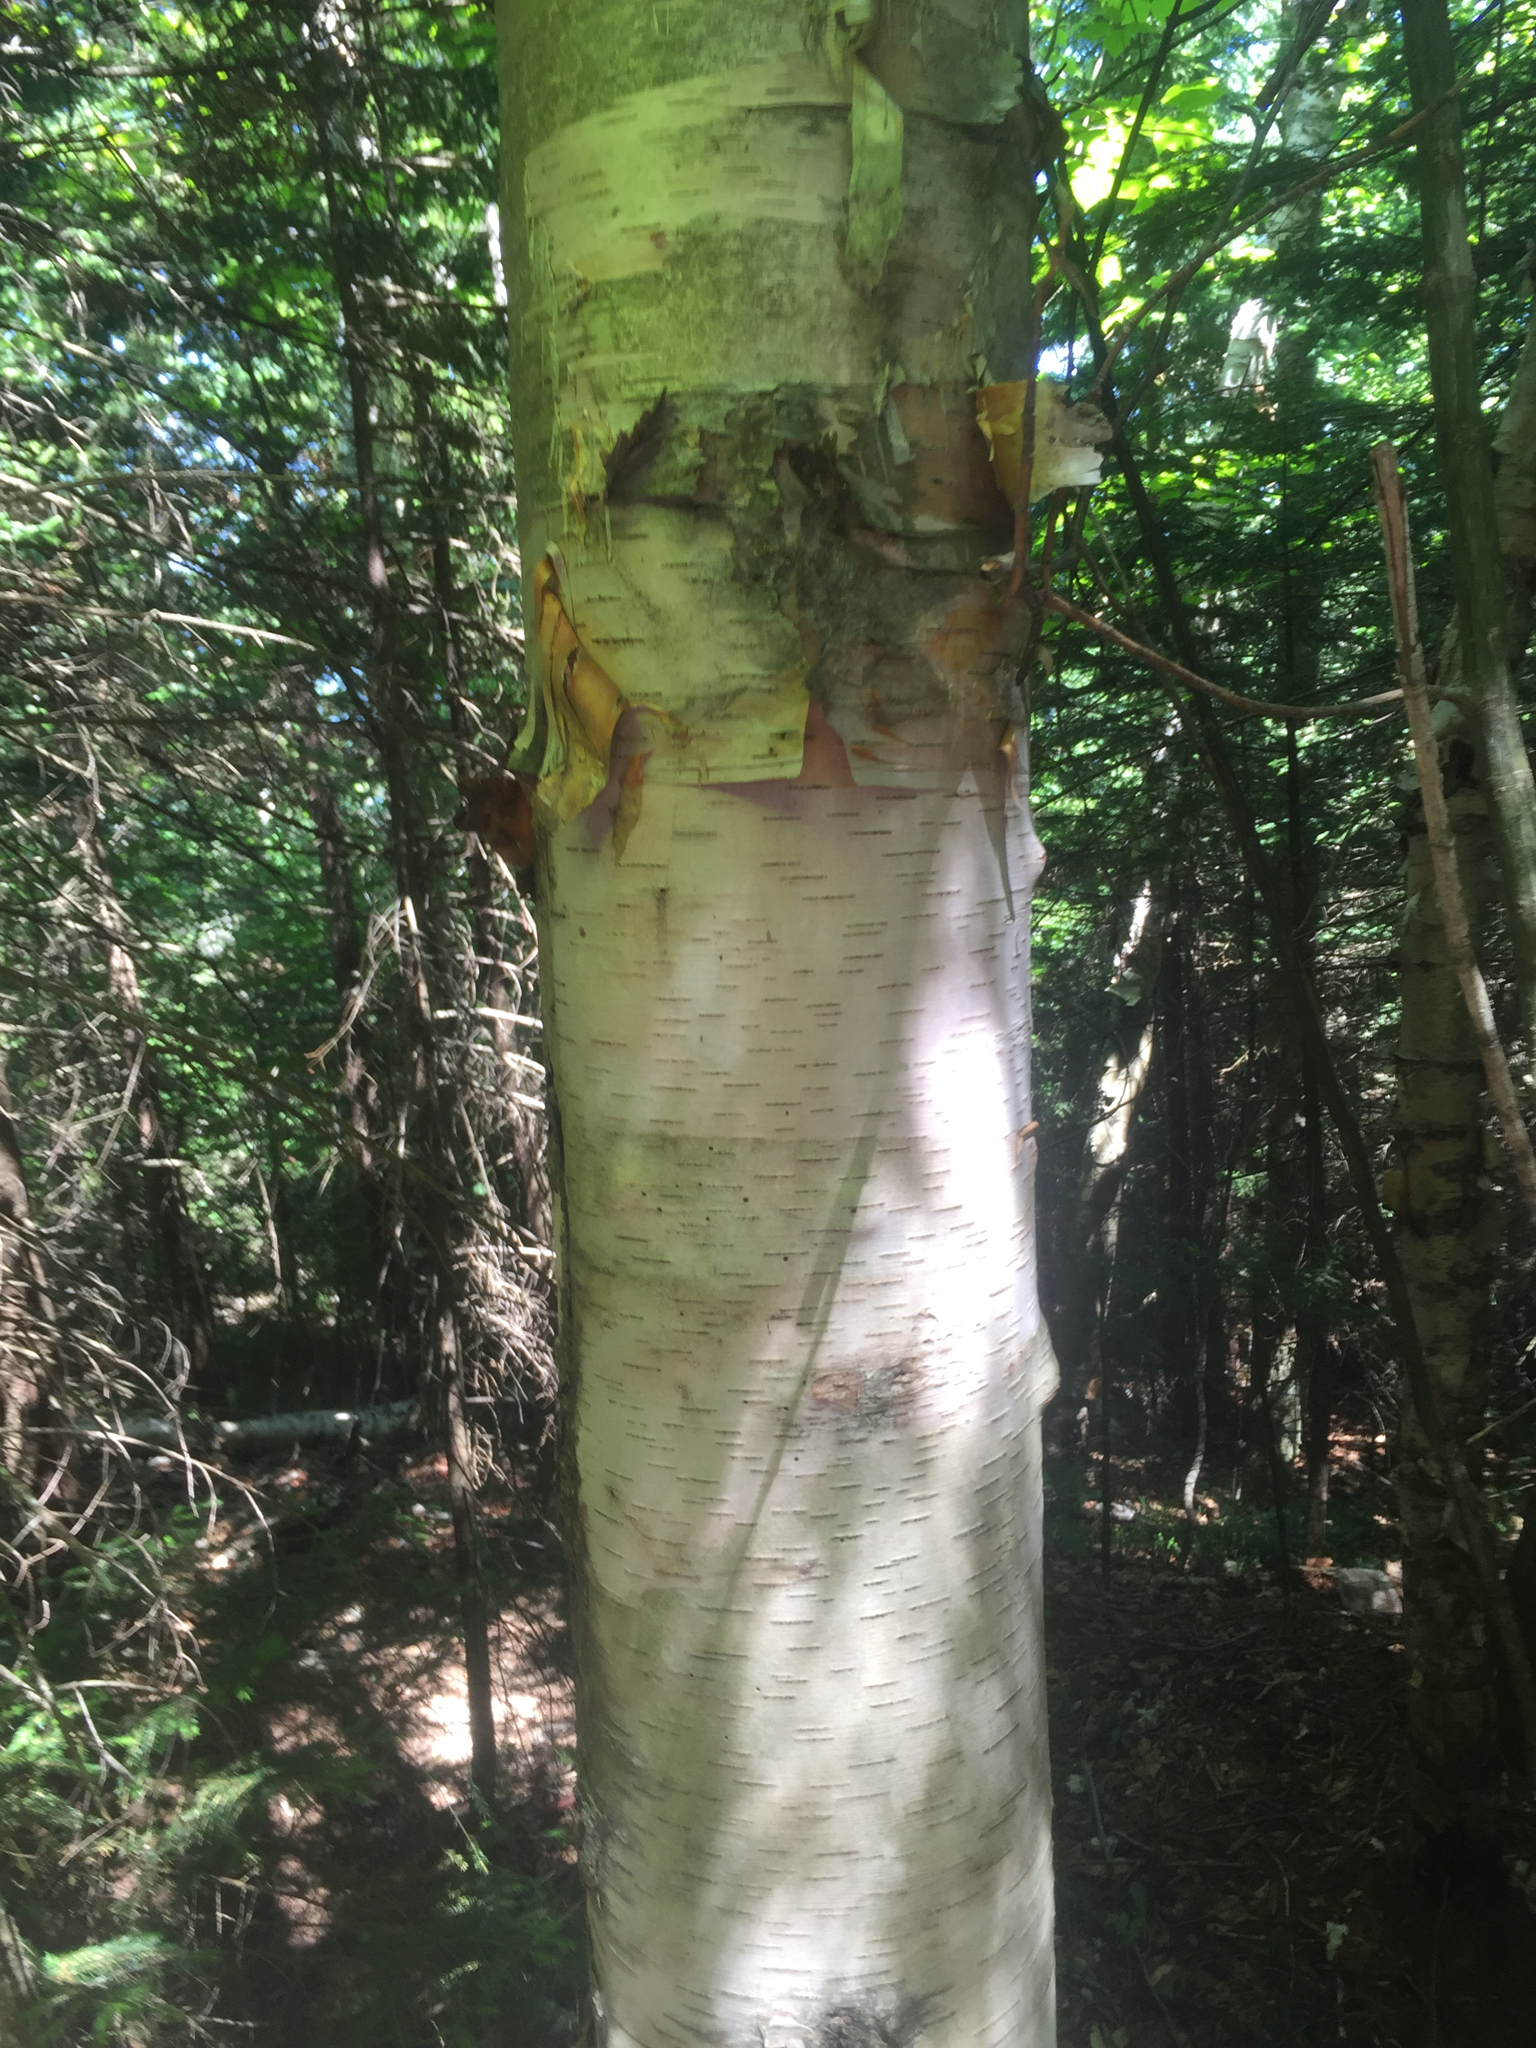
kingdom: Plantae
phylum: Tracheophyta
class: Magnoliopsida
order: Fagales
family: Betulaceae
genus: Betula
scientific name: Betula cordifolia
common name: Mountain white birch
